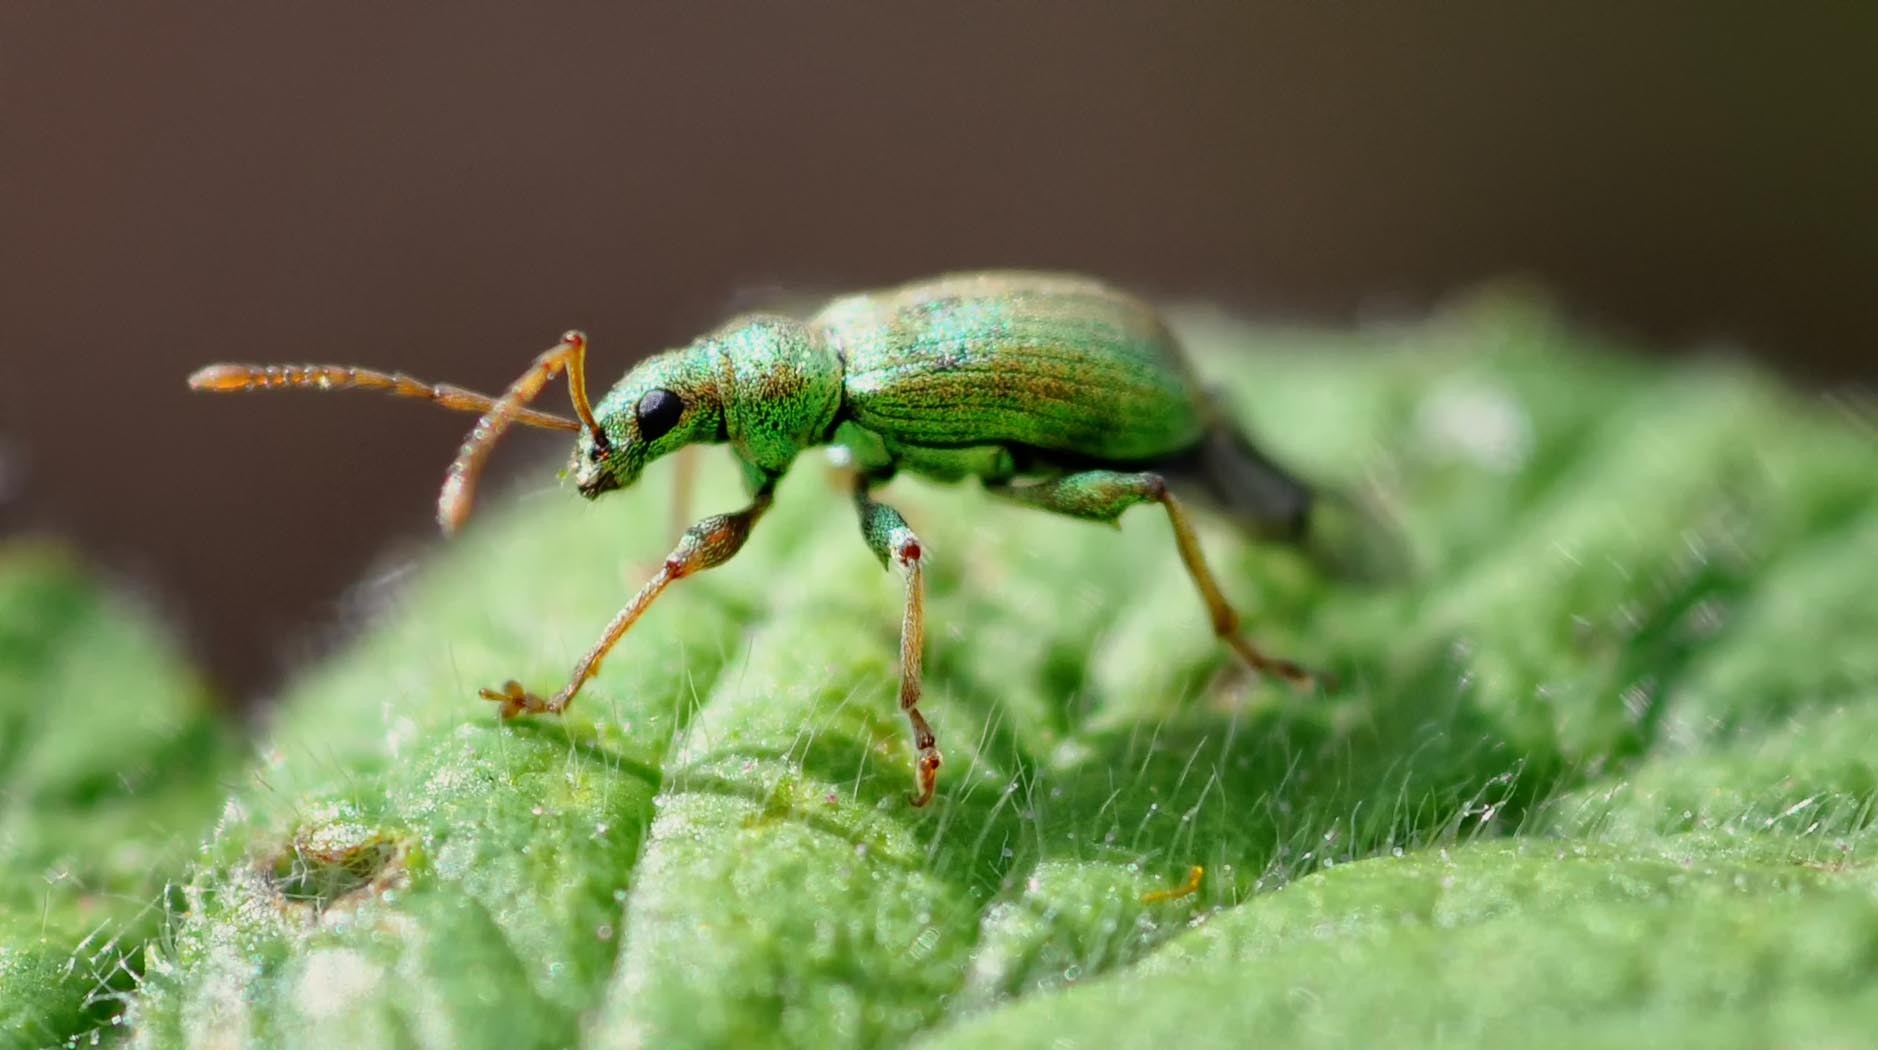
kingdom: Animalia
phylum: Arthropoda
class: Insecta
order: Coleoptera
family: Curculionidae
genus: Phyllobius
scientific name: Phyllobius argentatus
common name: Silver-green leaf weevil
